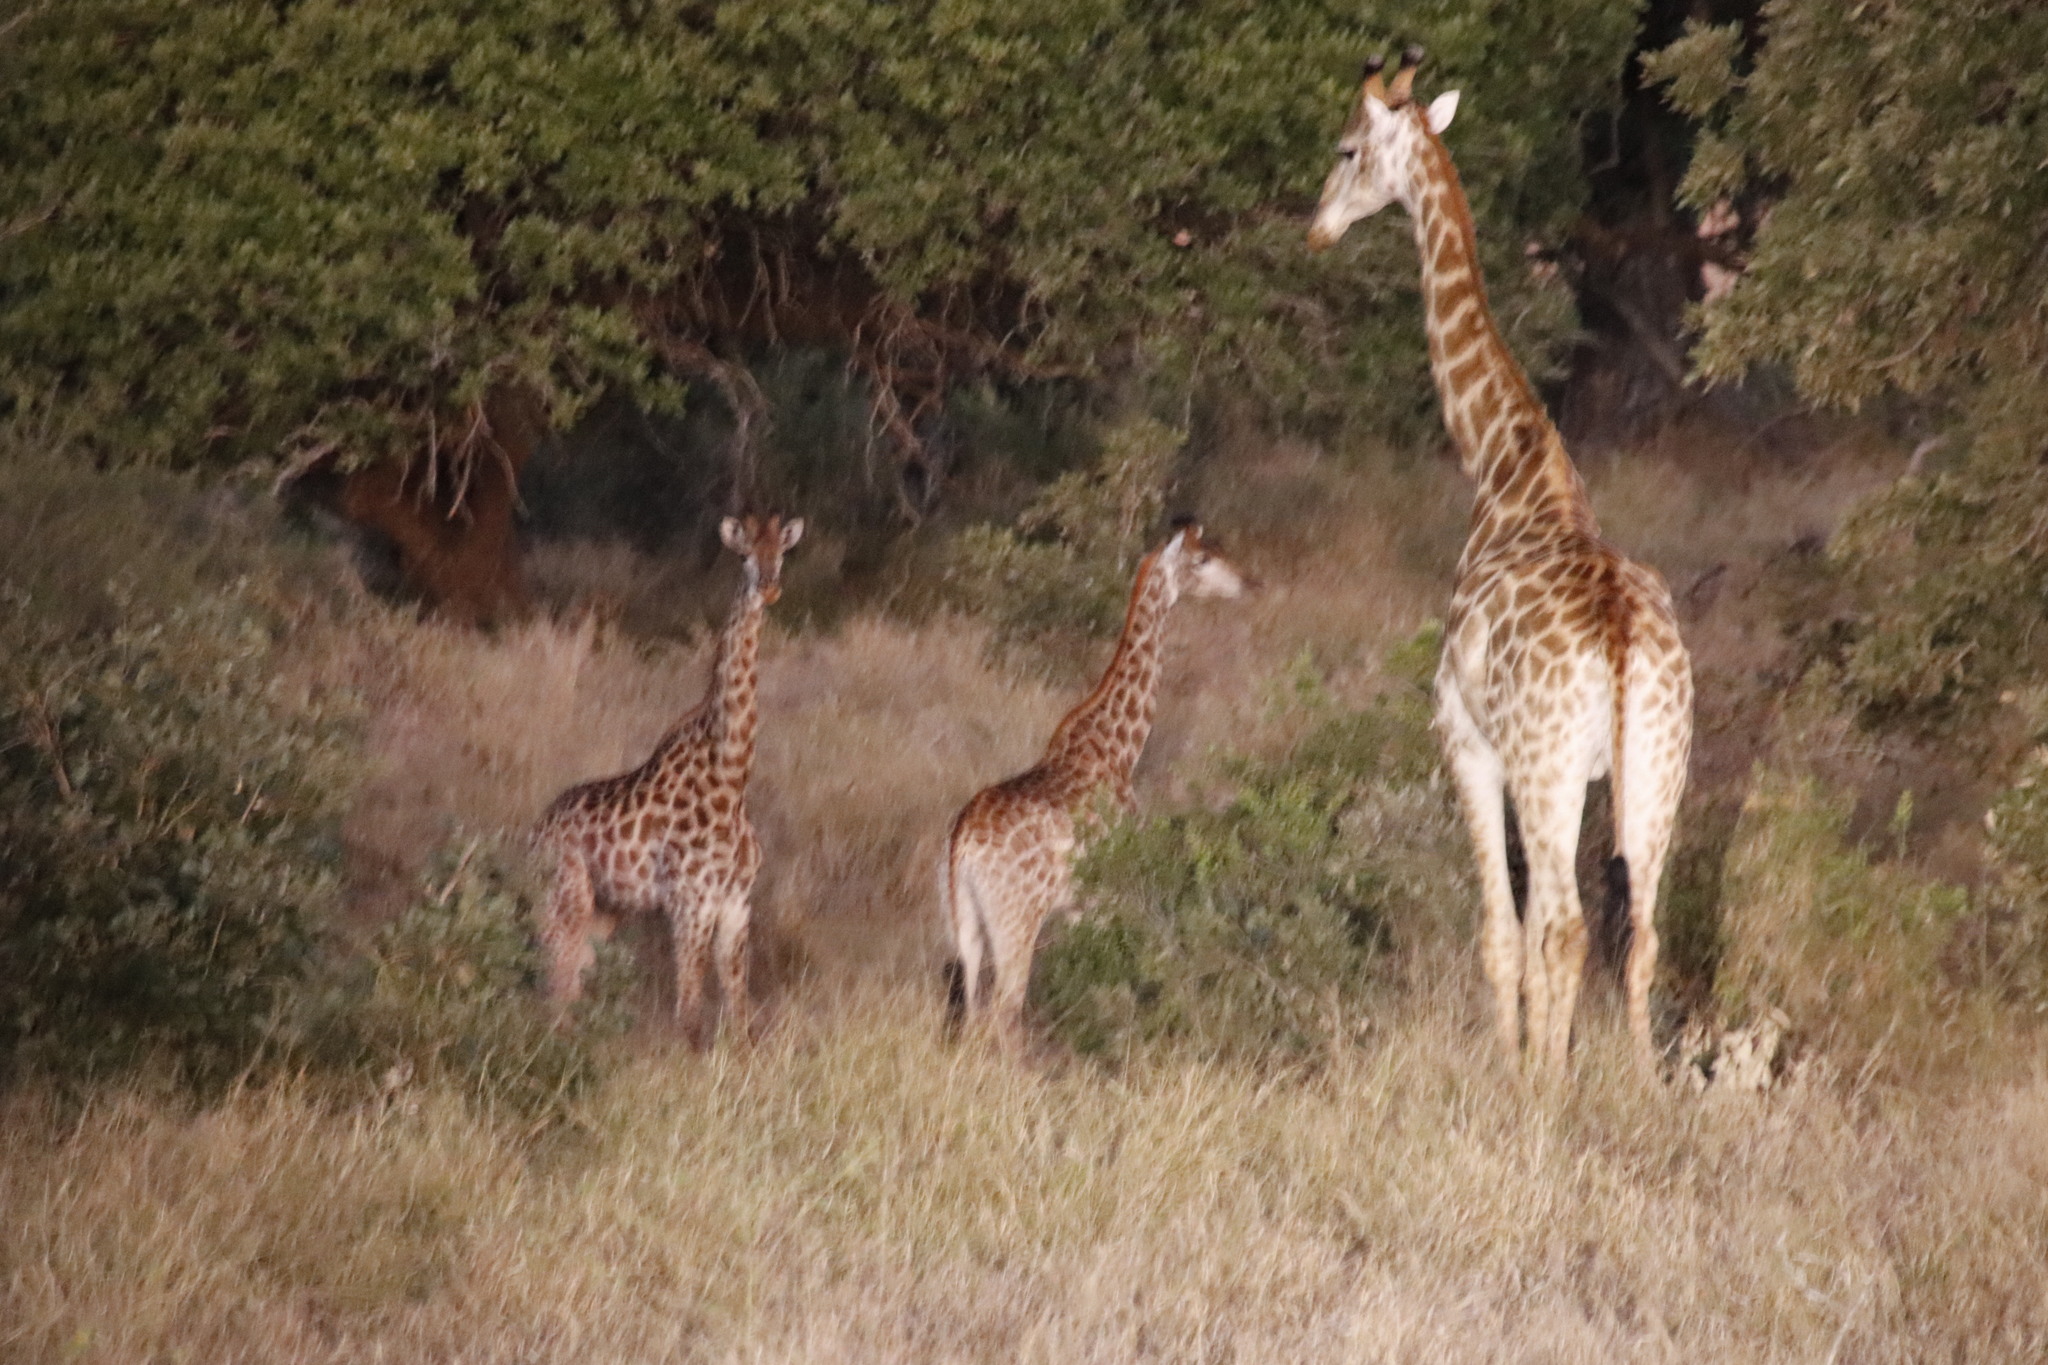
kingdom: Animalia
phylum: Chordata
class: Mammalia
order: Artiodactyla
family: Giraffidae
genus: Giraffa
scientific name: Giraffa giraffa
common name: Southern giraffe
